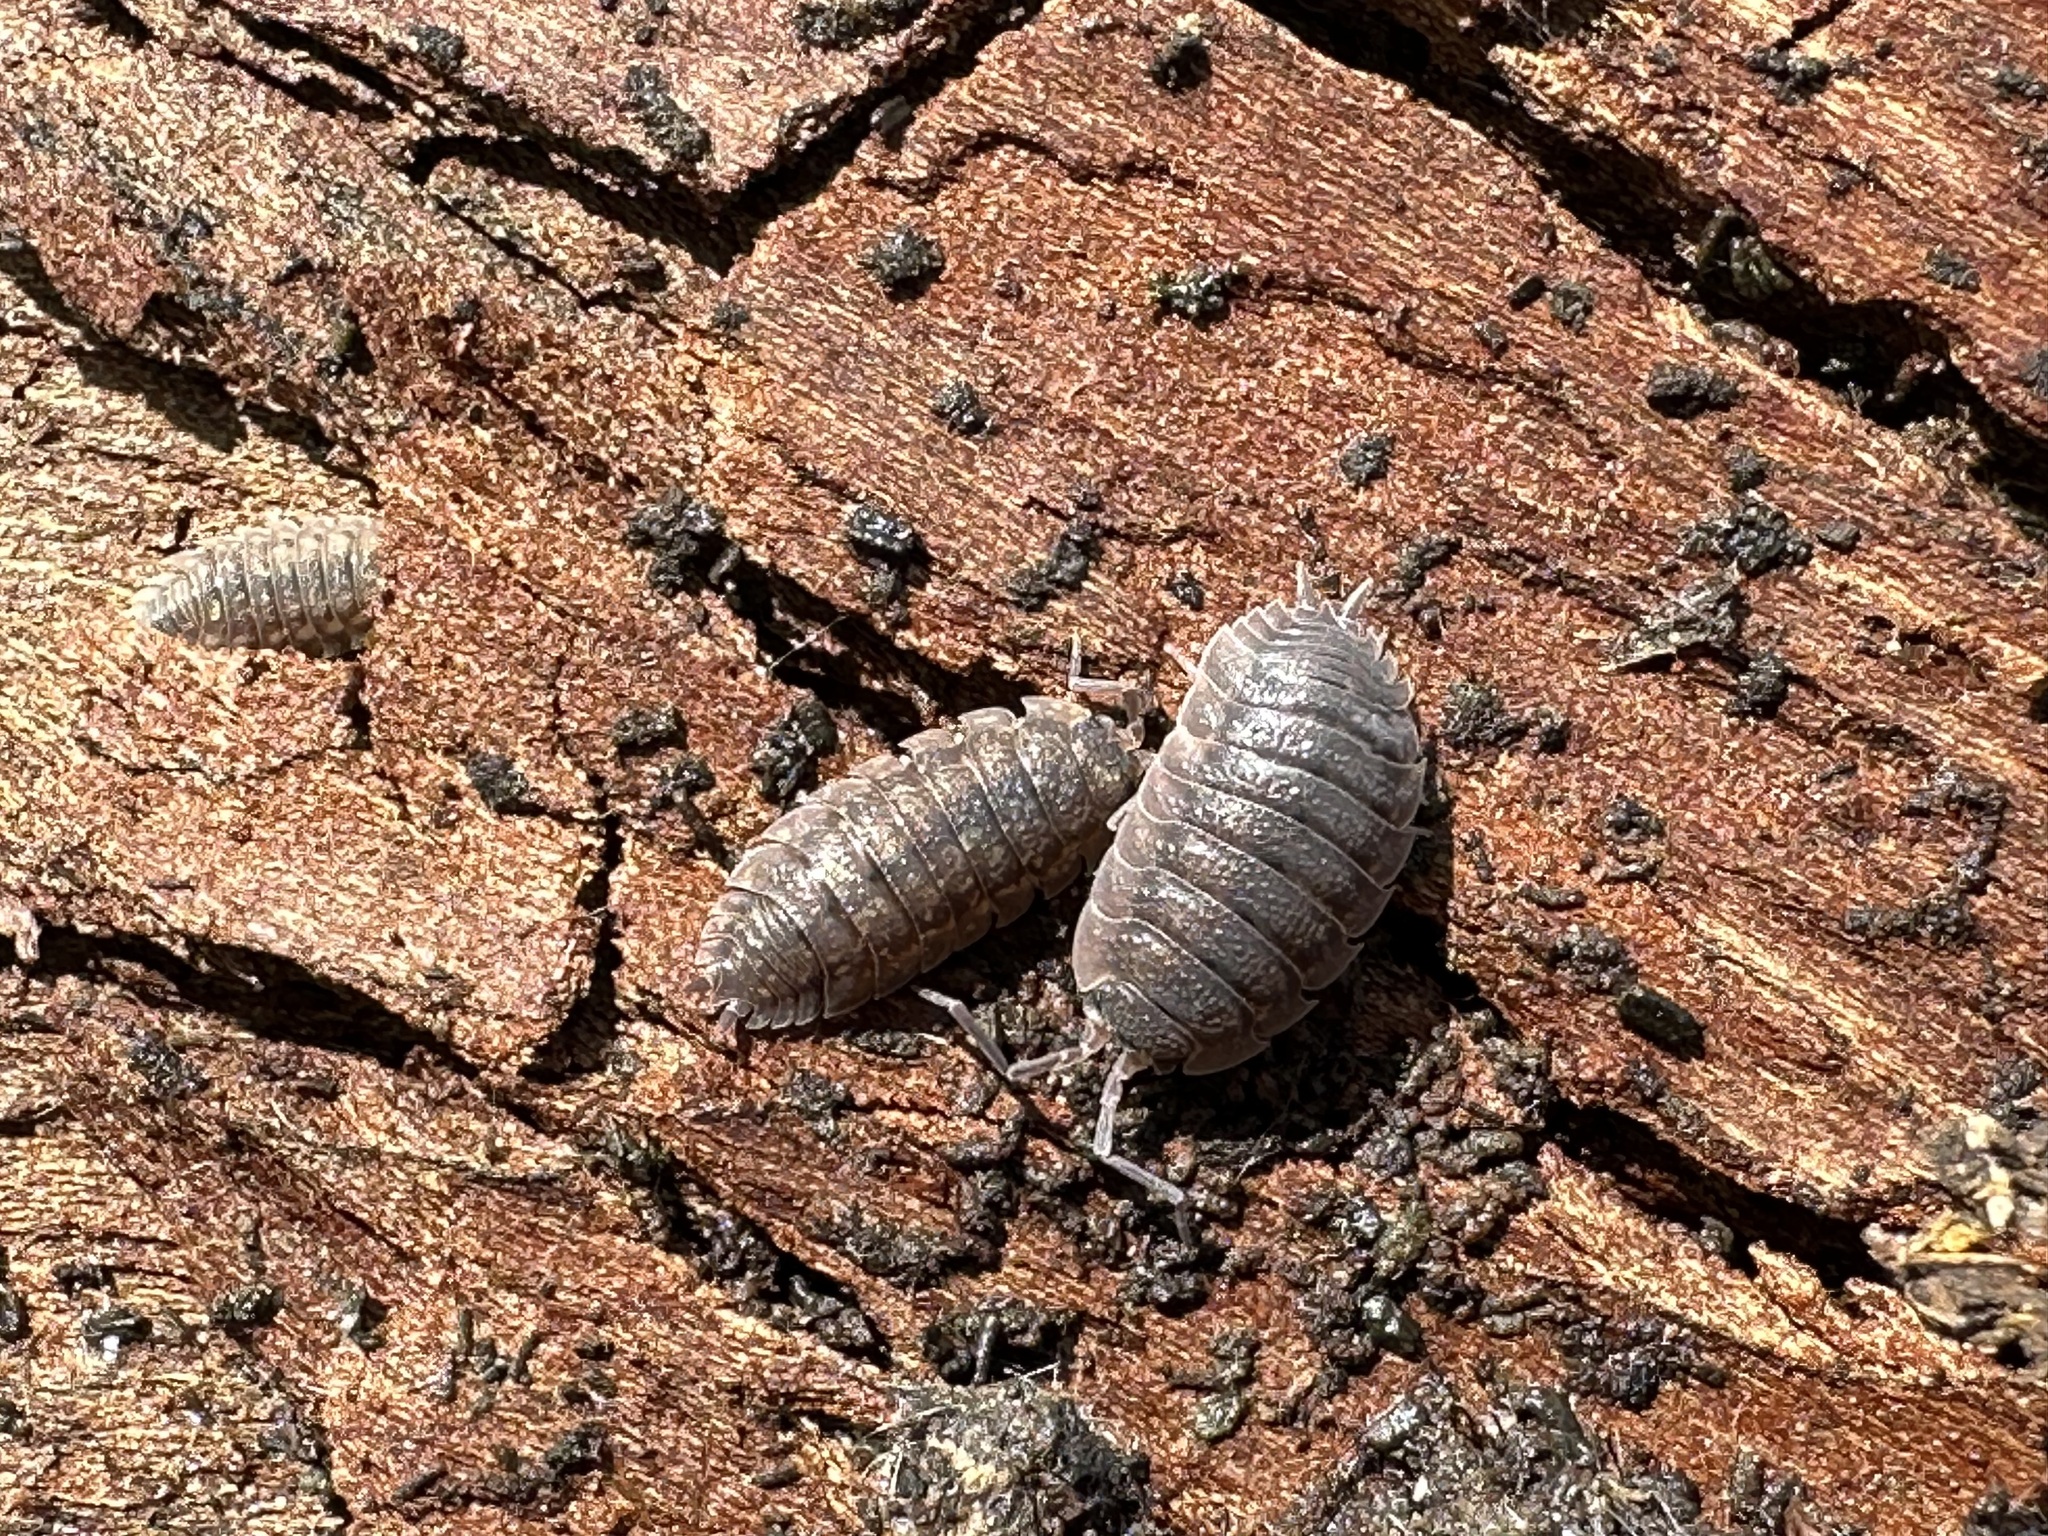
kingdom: Animalia
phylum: Arthropoda
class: Malacostraca
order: Isopoda
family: Porcellionidae
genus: Porcellio
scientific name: Porcellio scaber
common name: Common rough woodlouse
